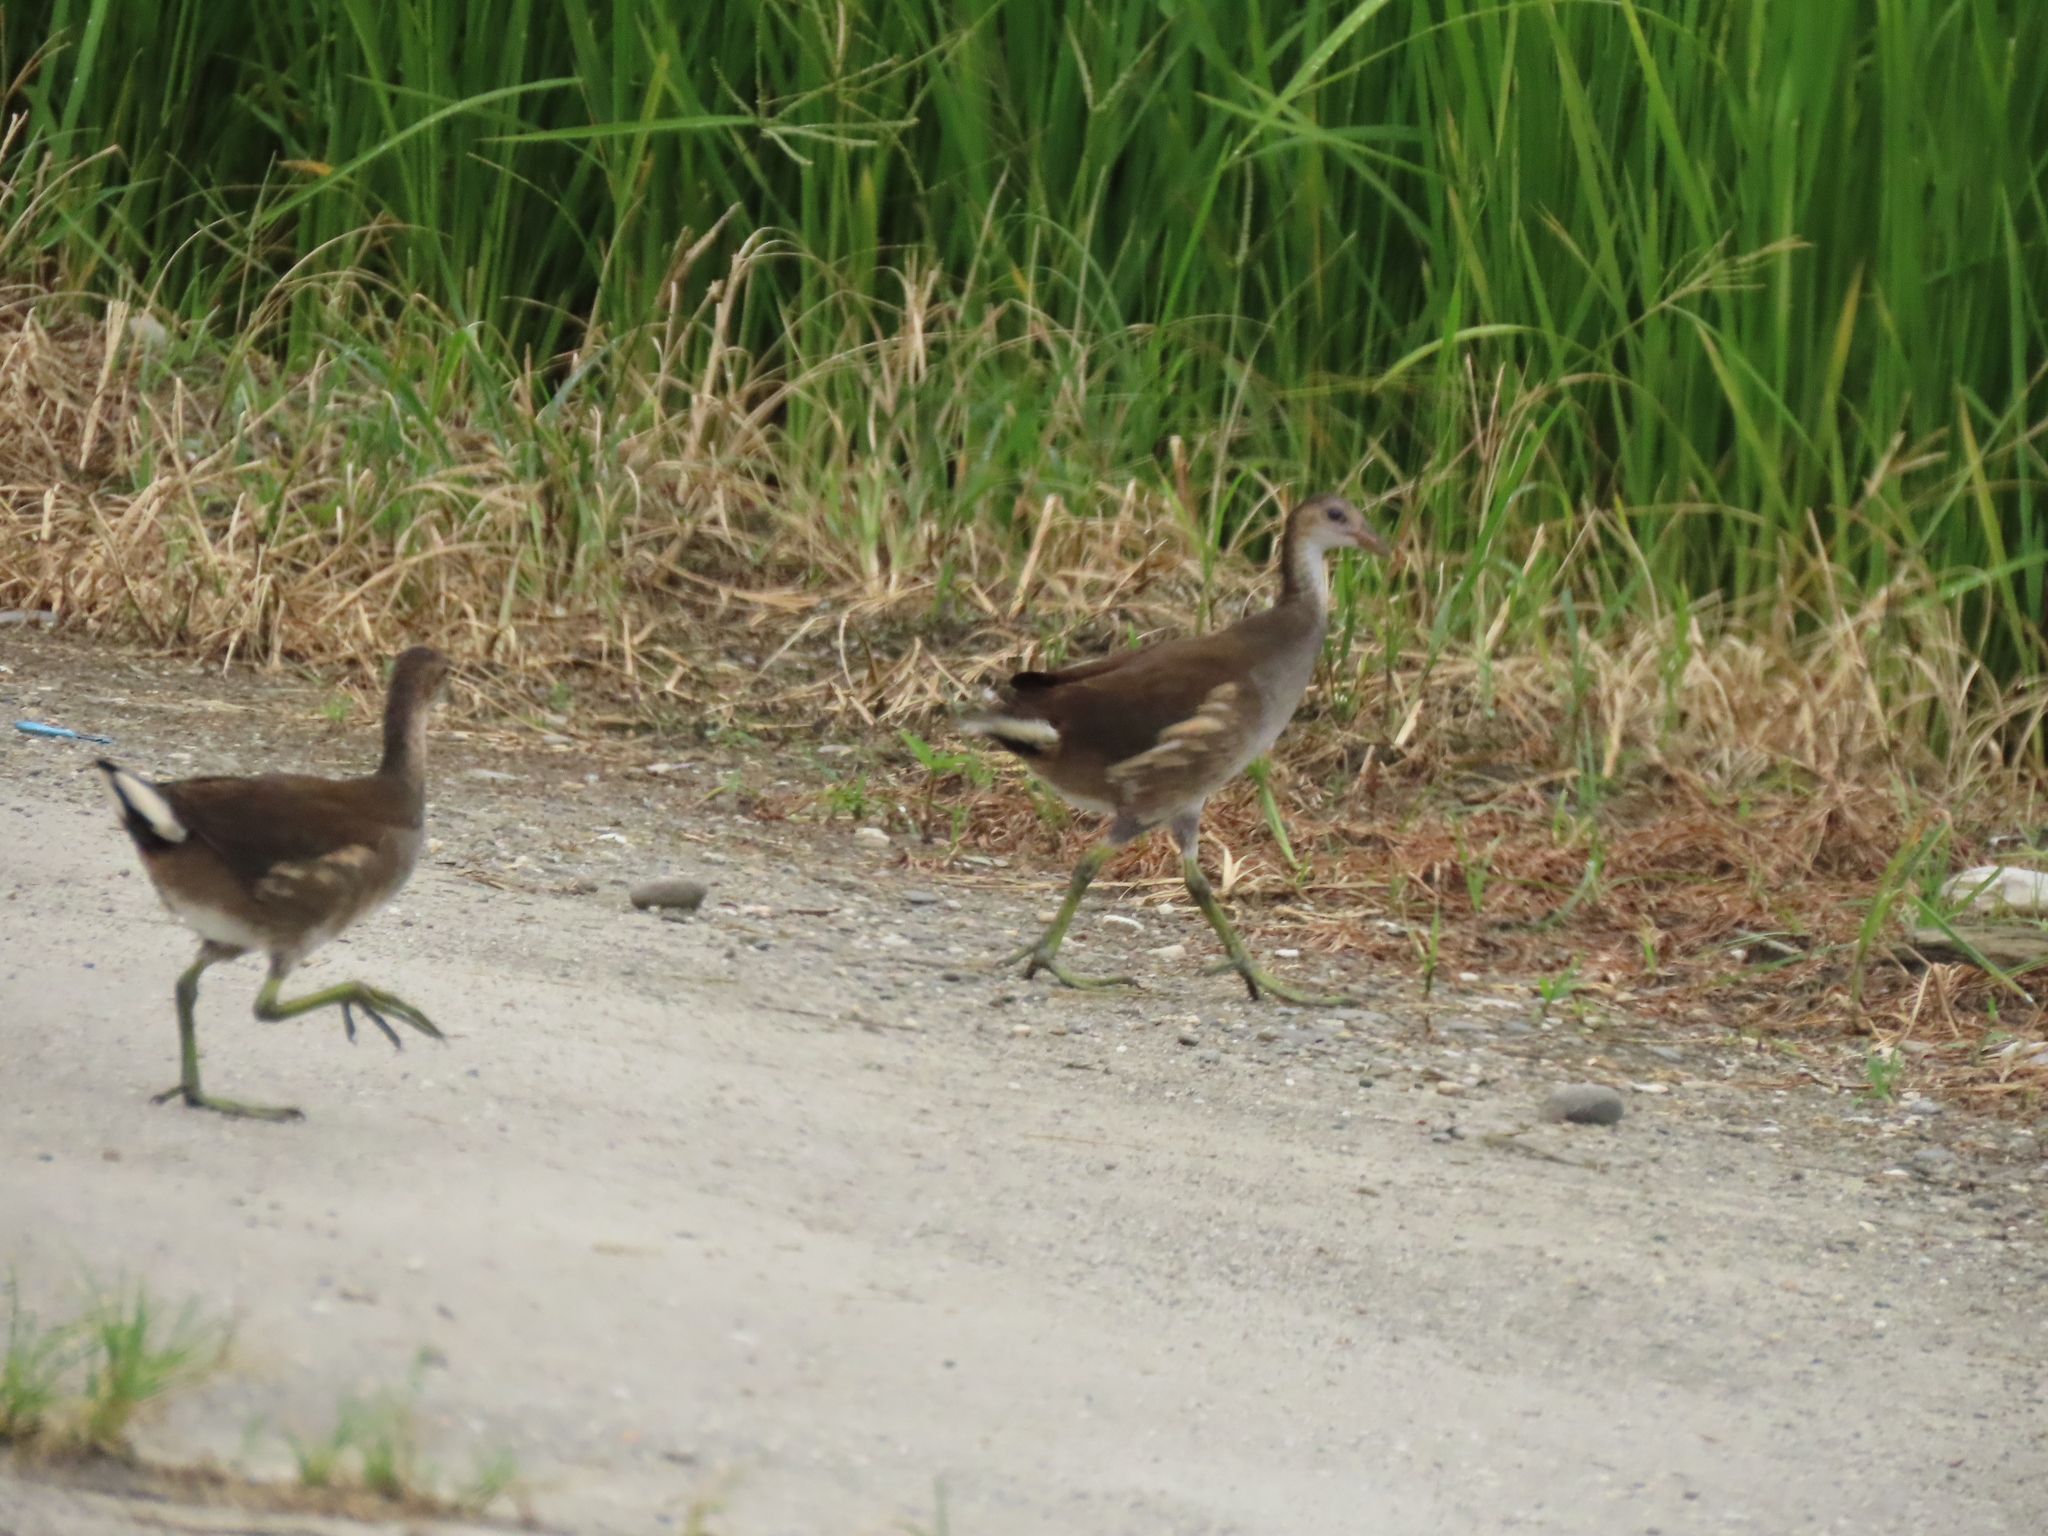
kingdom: Animalia
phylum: Chordata
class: Aves
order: Gruiformes
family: Rallidae
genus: Gallinula
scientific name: Gallinula chloropus
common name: Common moorhen
